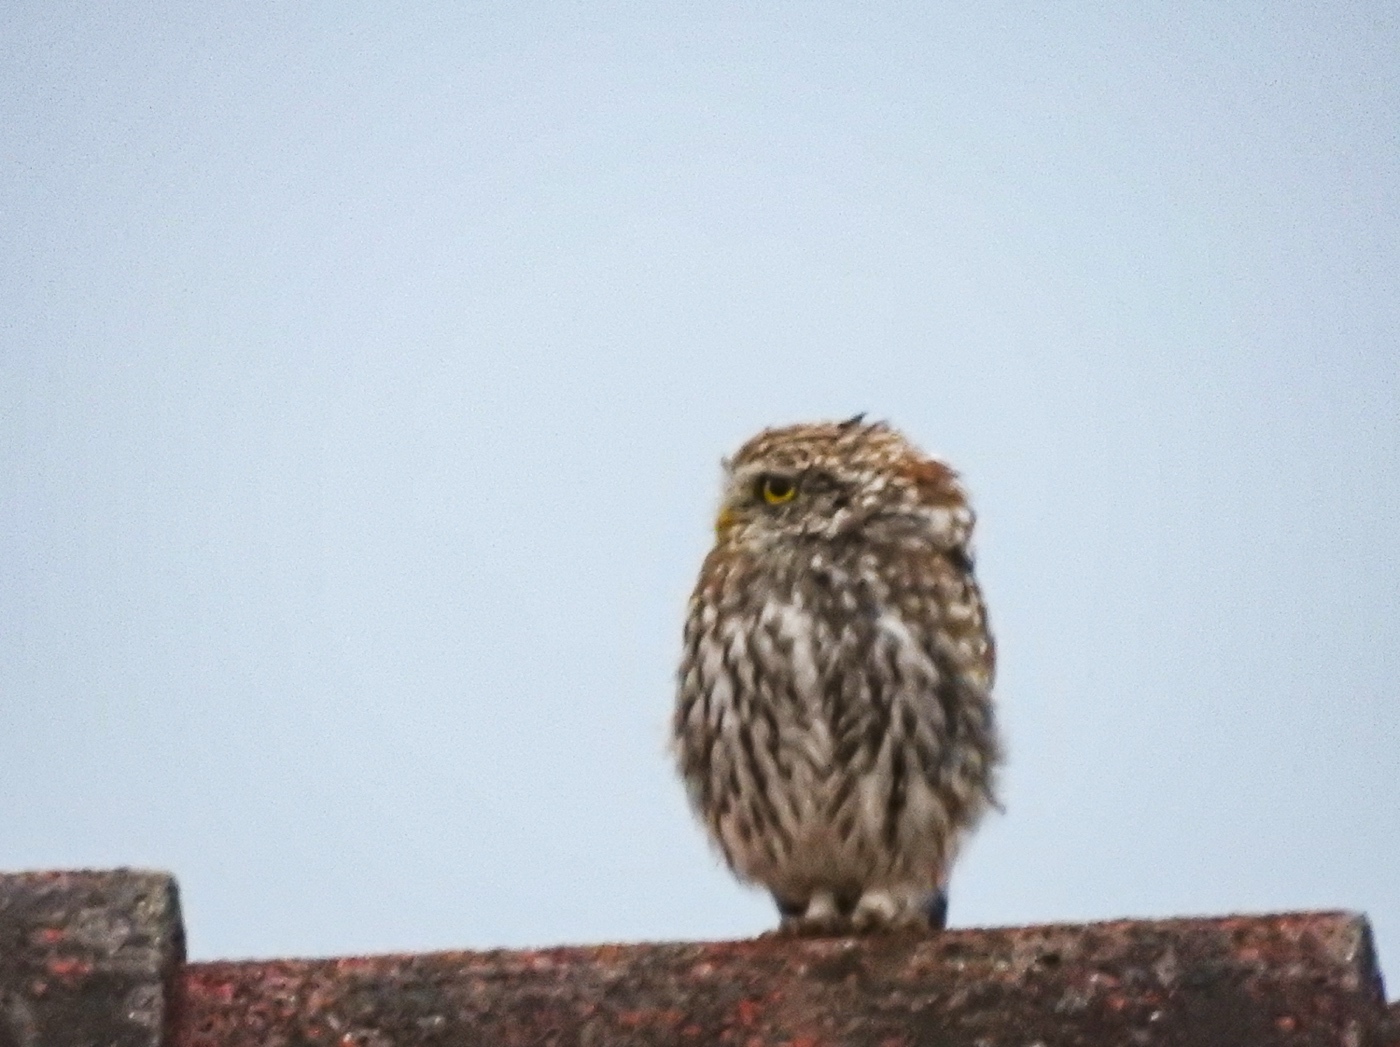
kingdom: Animalia
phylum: Chordata
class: Aves
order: Strigiformes
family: Strigidae
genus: Athene
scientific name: Athene noctua
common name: Little owl
